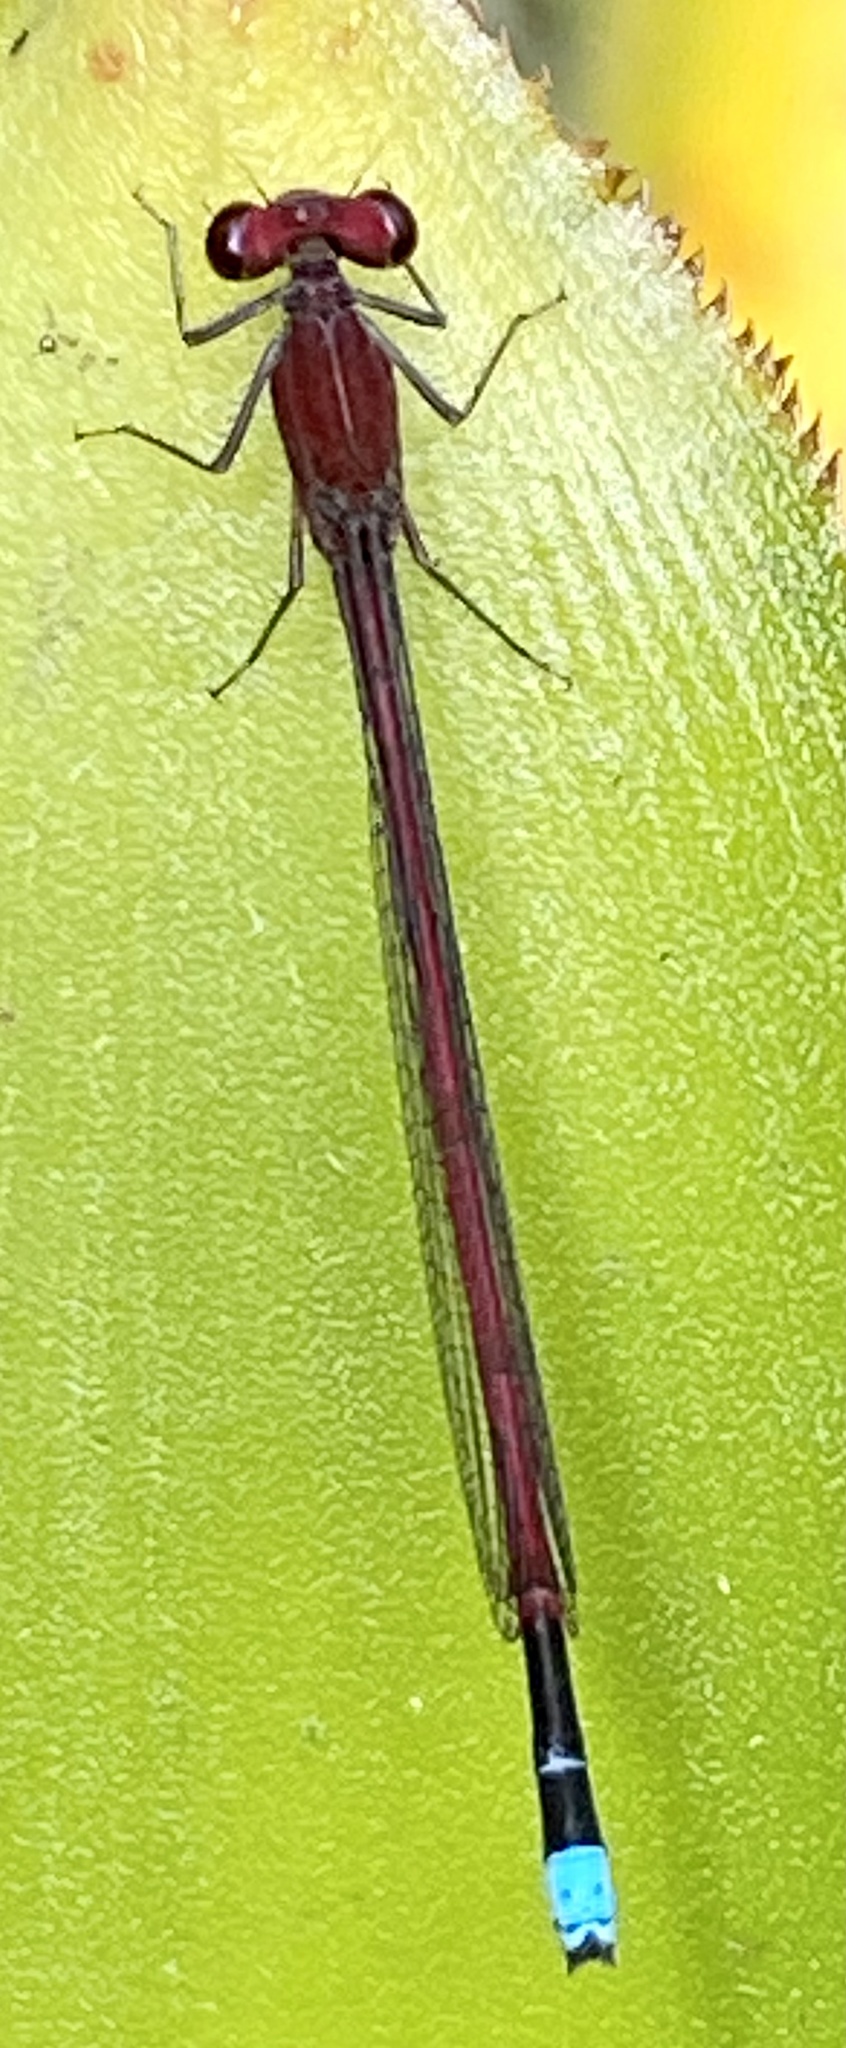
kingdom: Animalia
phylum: Arthropoda
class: Insecta
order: Odonata
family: Coenagrionidae
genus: Oxyagrion
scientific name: Oxyagrion simile
